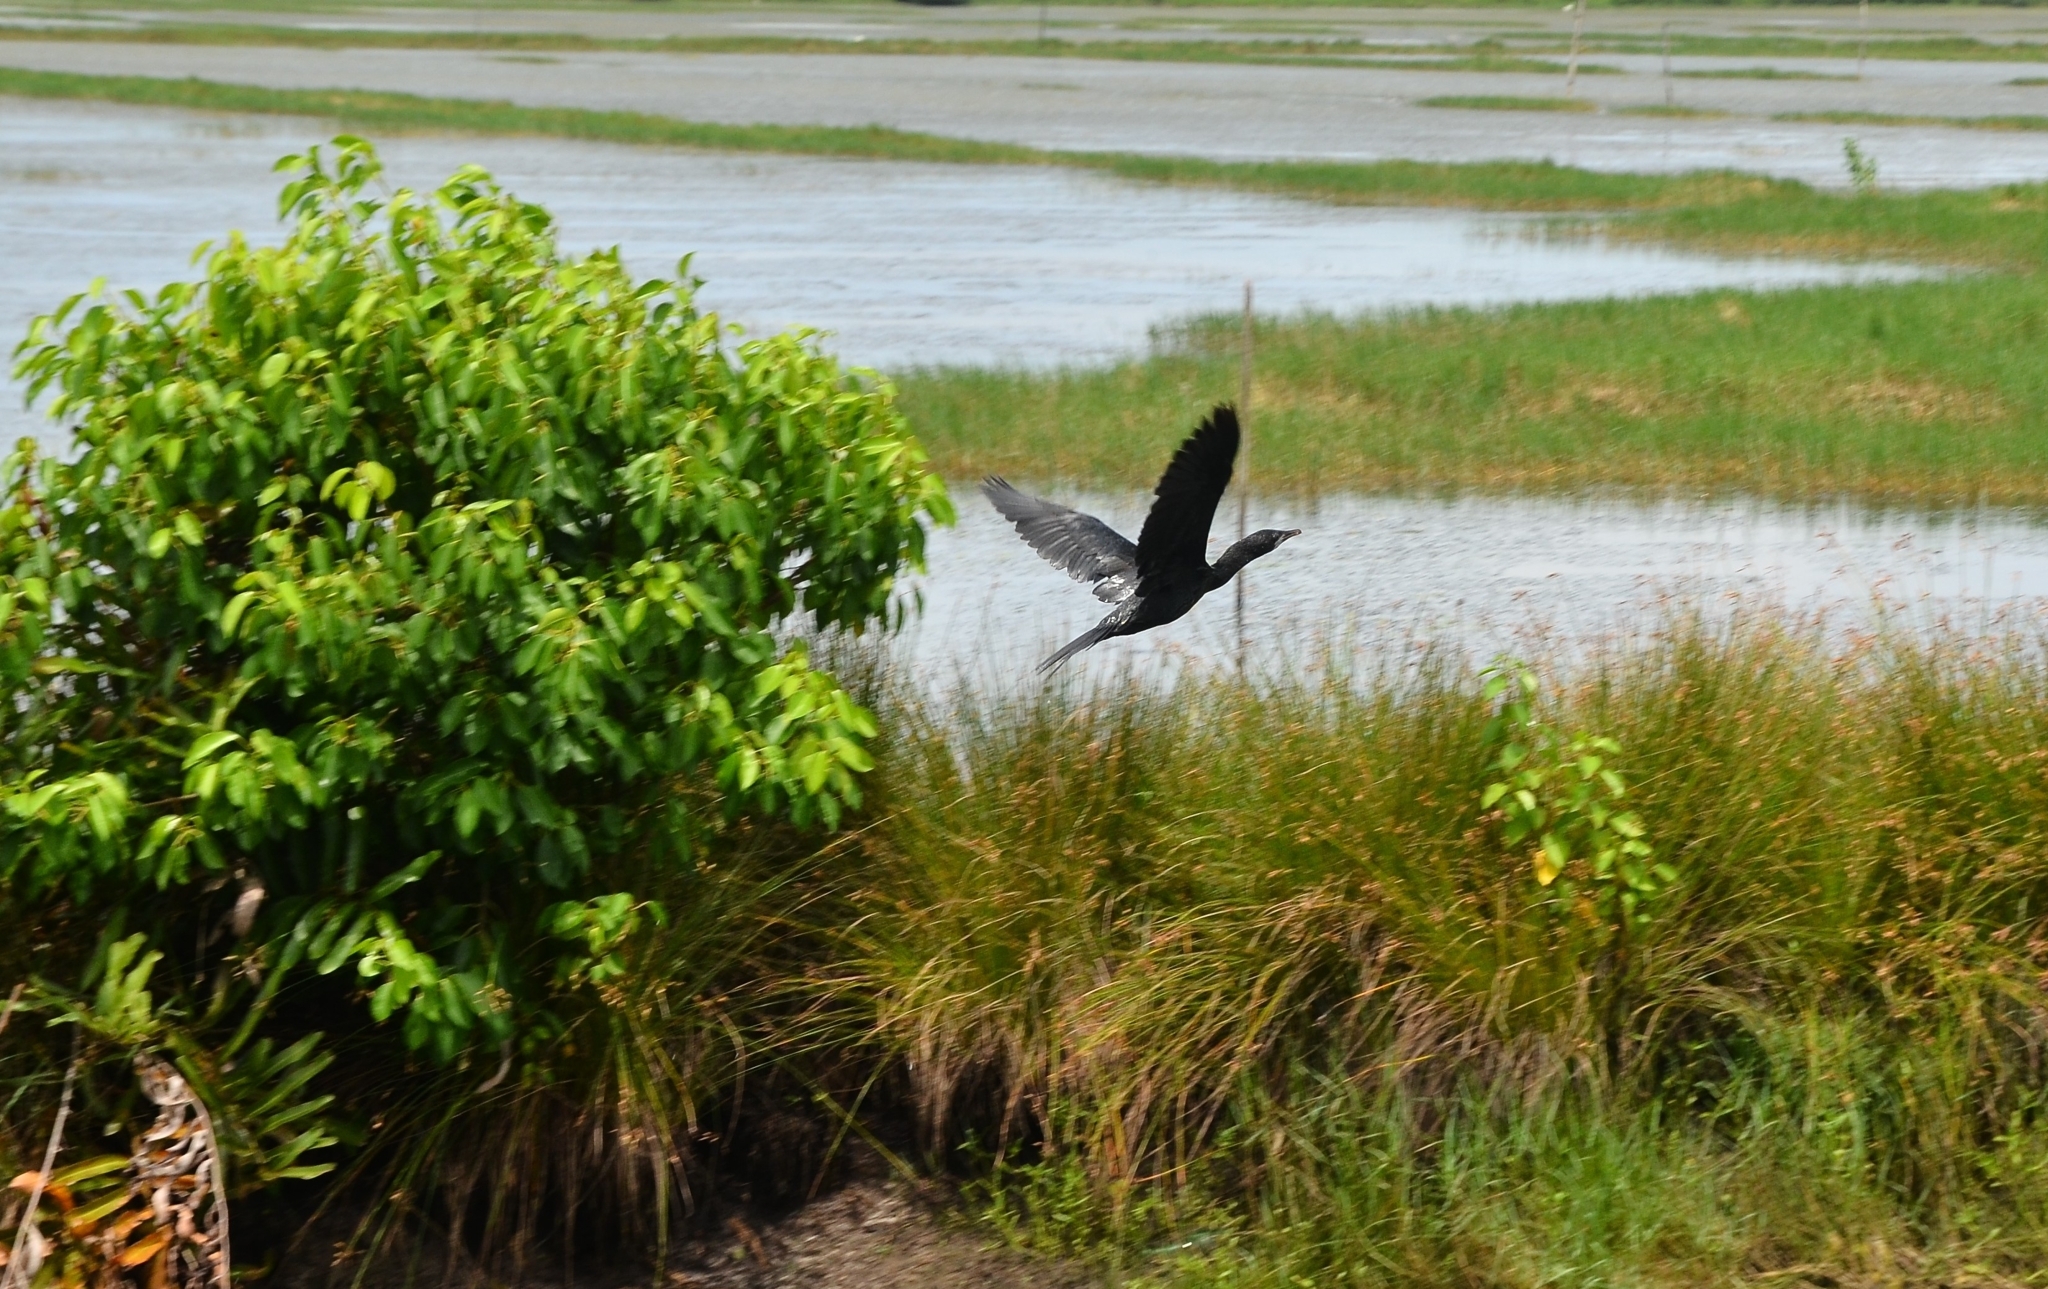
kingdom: Animalia
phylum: Chordata
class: Aves
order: Suliformes
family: Phalacrocoracidae
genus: Microcarbo
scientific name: Microcarbo niger
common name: Little cormorant
